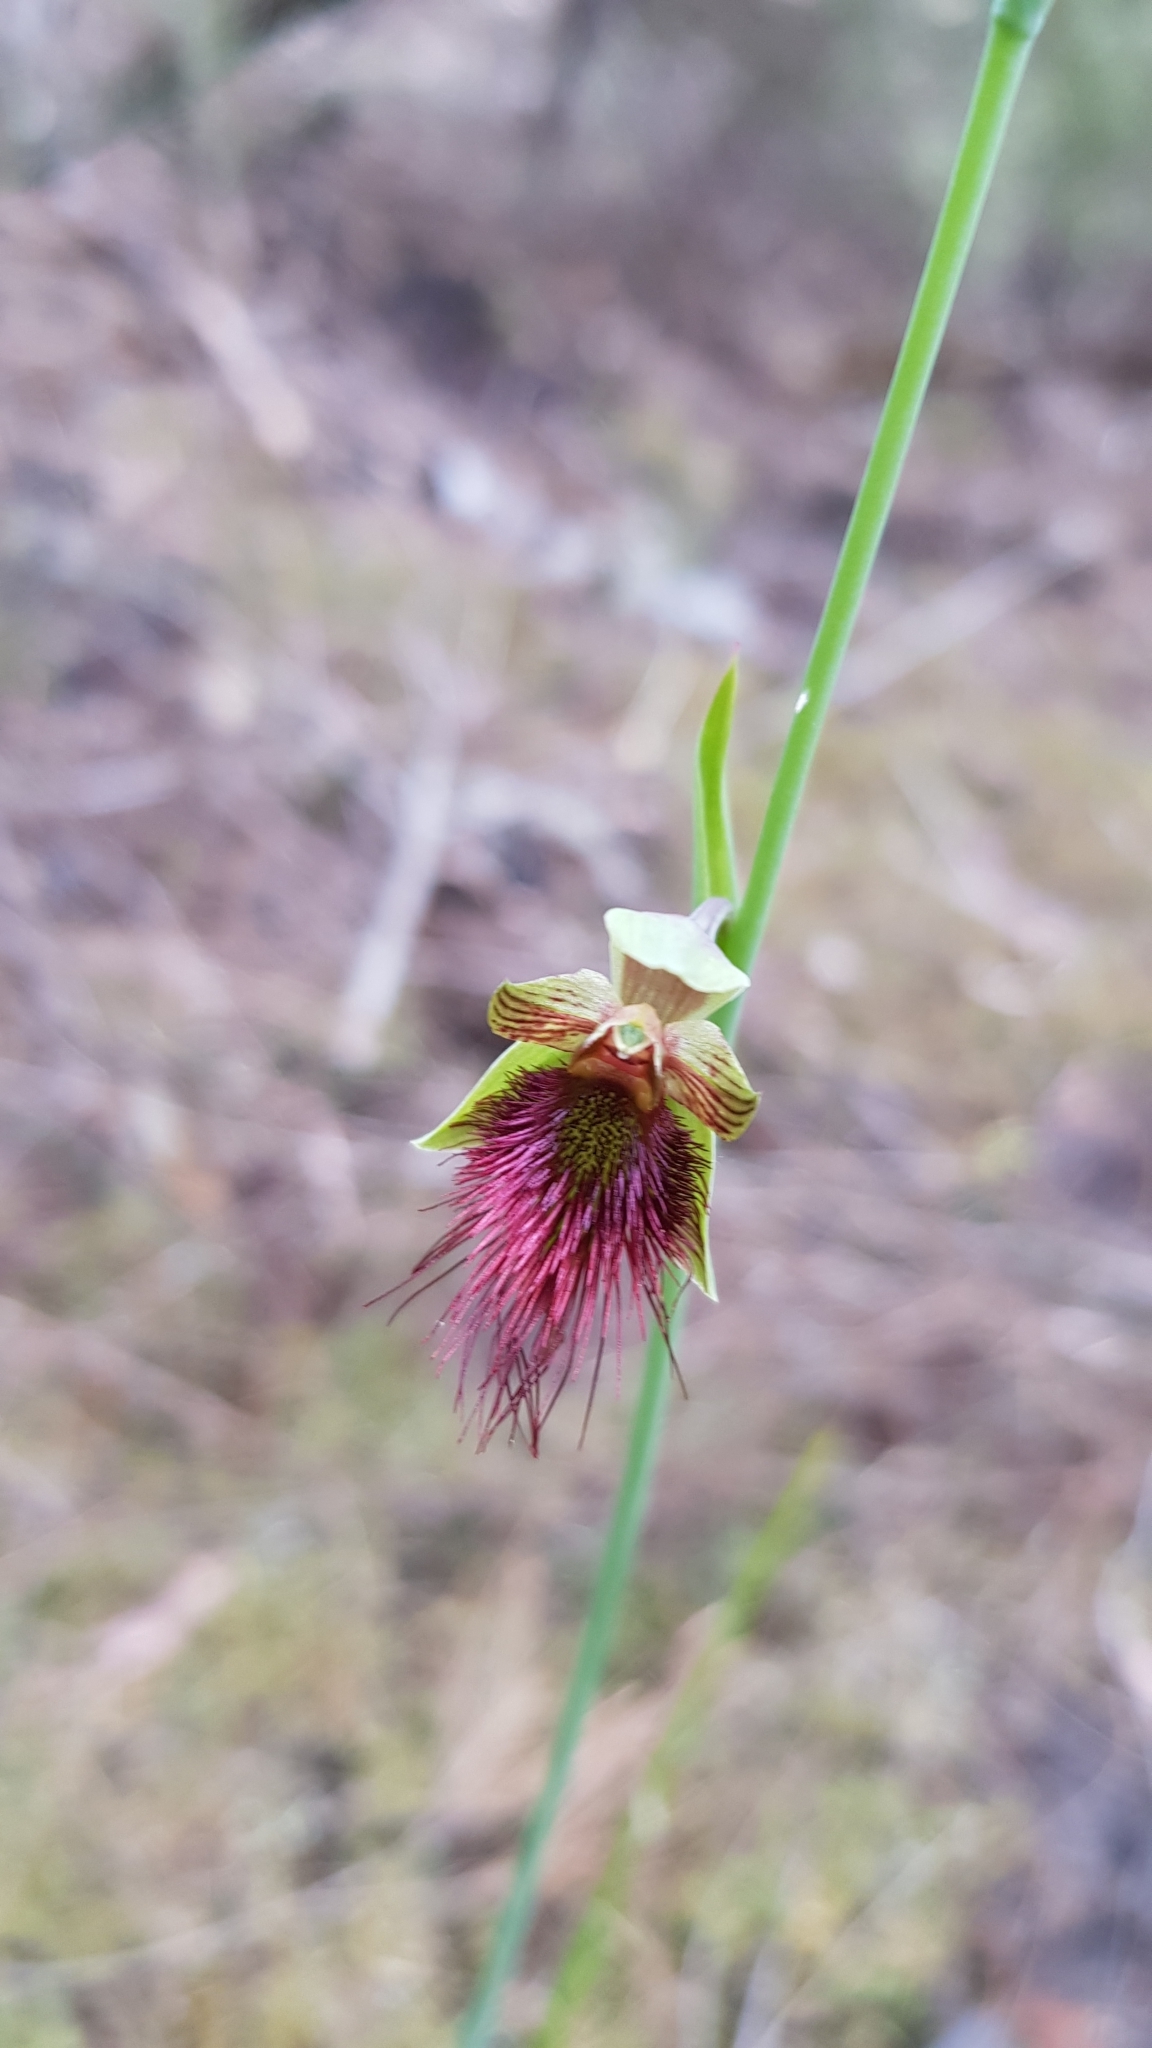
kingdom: Plantae
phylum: Tracheophyta
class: Liliopsida
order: Asparagales
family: Orchidaceae
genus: Calochilus
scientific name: Calochilus paludosus
